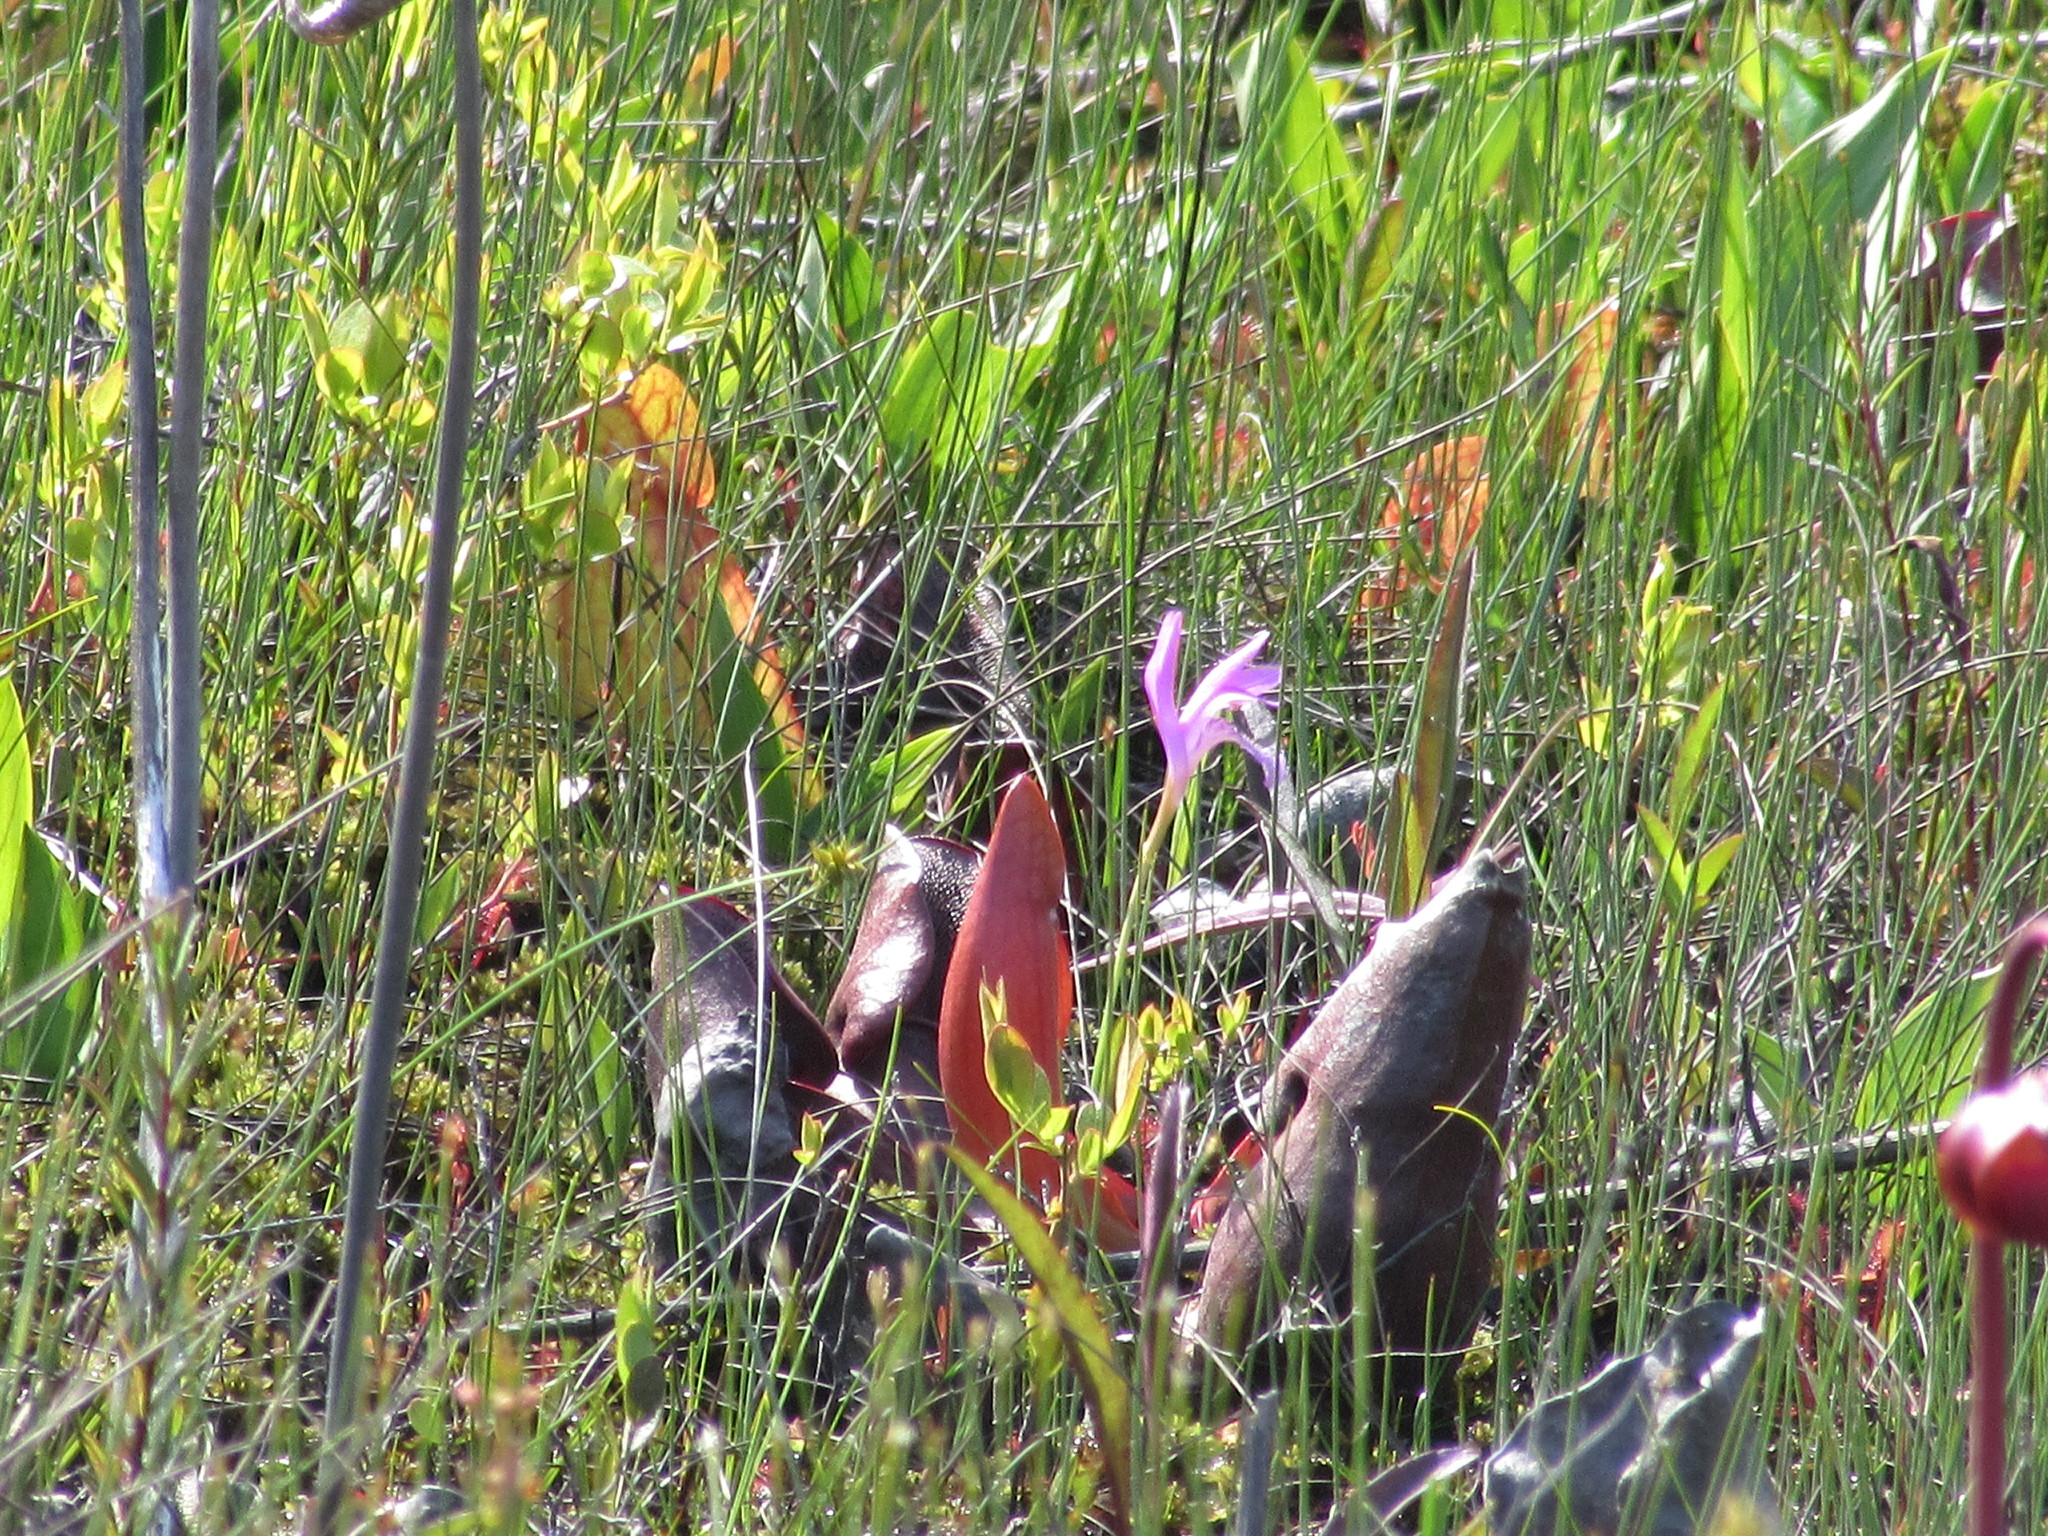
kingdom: Plantae
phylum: Tracheophyta
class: Liliopsida
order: Asparagales
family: Orchidaceae
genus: Arethusa
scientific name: Arethusa bulbosa
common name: Arethusa
